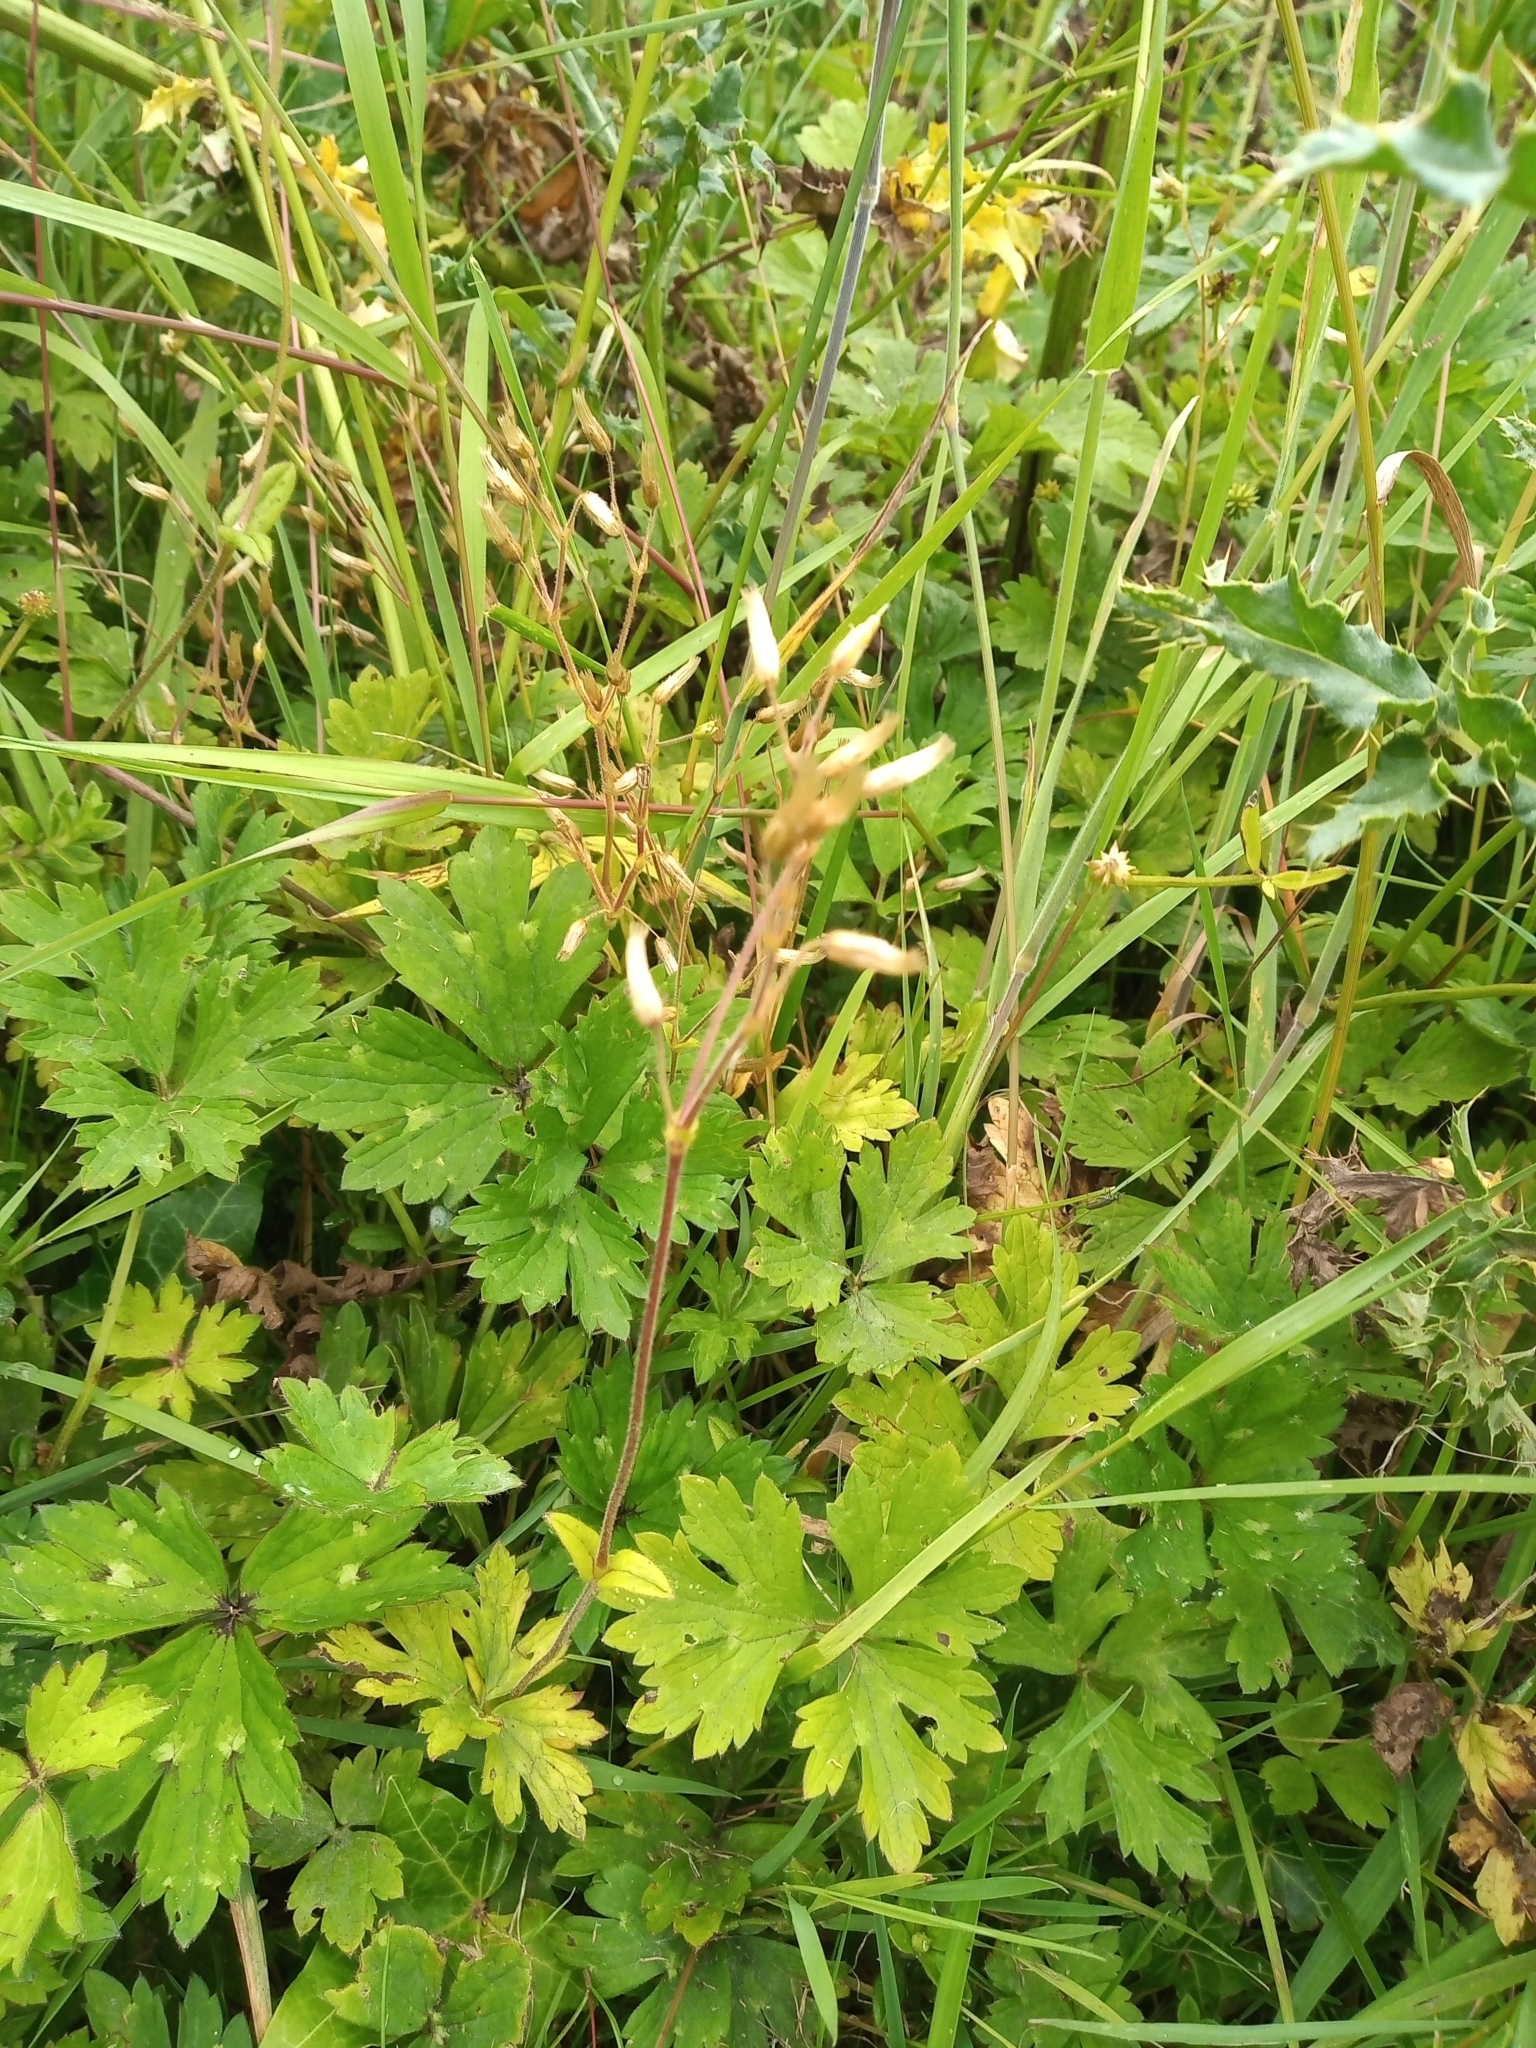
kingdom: Plantae
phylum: Tracheophyta
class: Magnoliopsida
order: Caryophyllales
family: Caryophyllaceae
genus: Cerastium
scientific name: Cerastium fontanum
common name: Common mouse-ear
